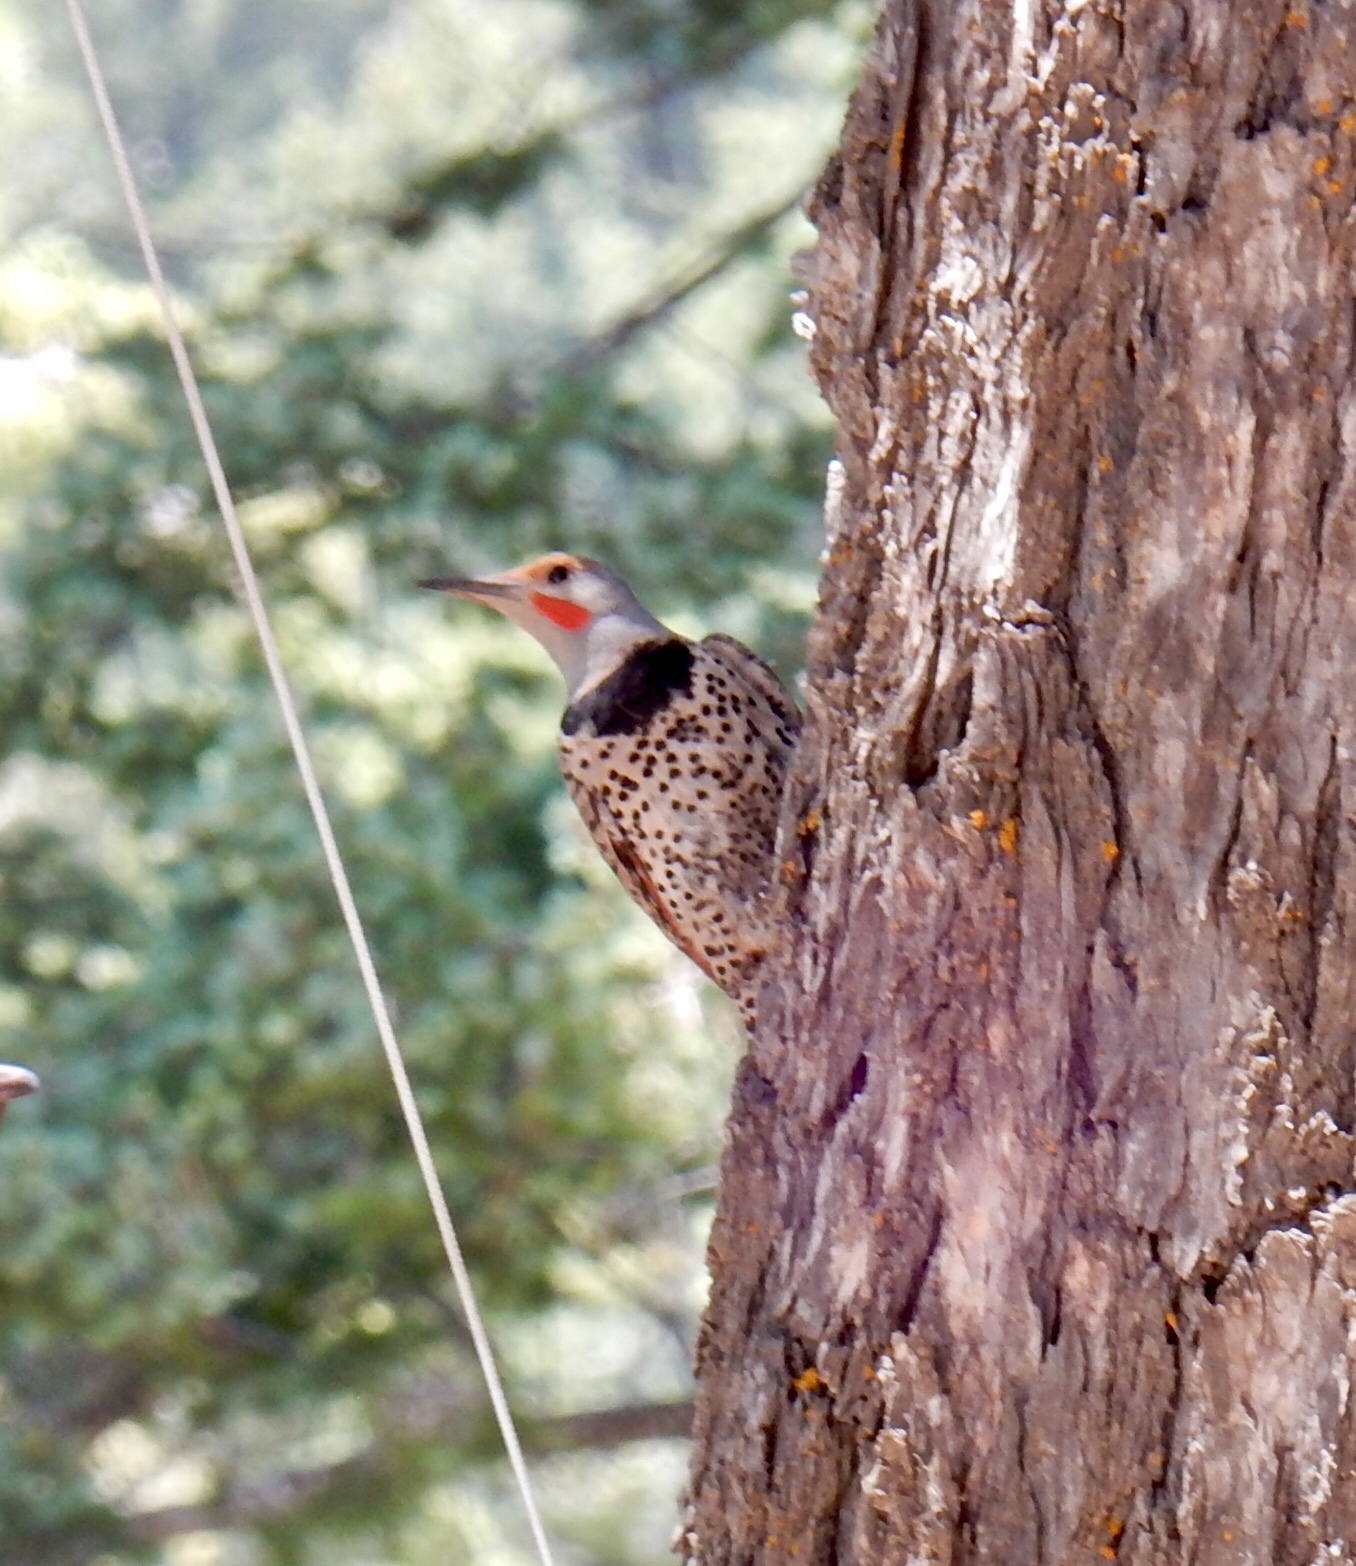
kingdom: Animalia
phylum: Chordata
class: Aves
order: Piciformes
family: Picidae
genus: Colaptes
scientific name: Colaptes auratus
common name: Northern flicker
